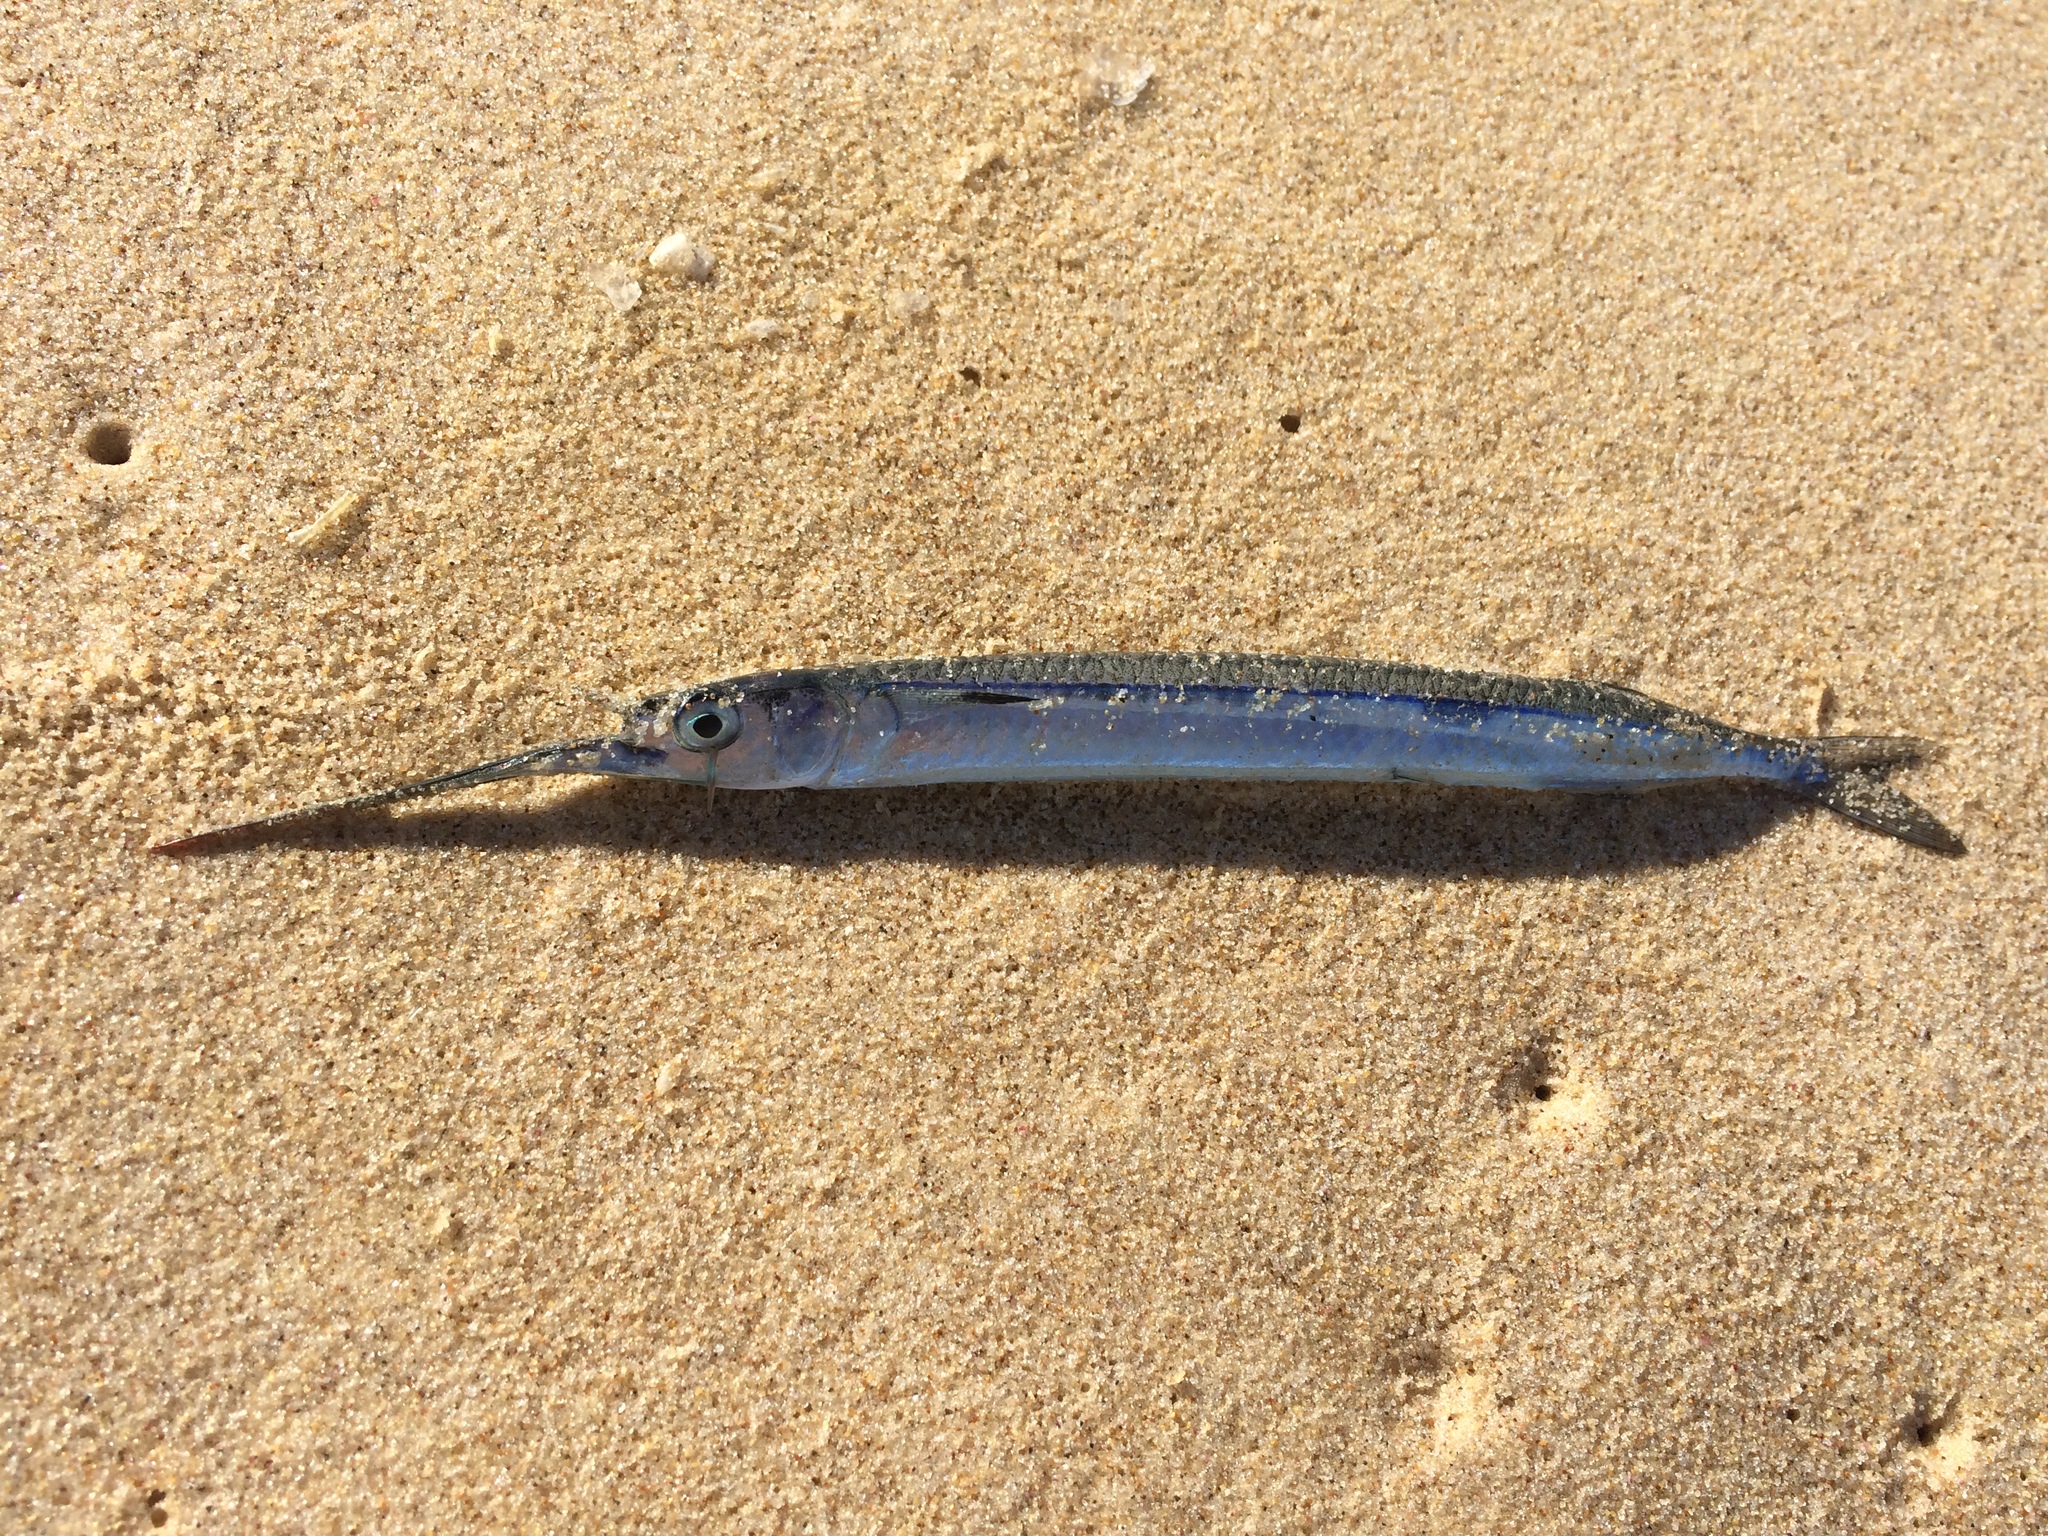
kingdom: Animalia
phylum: Chordata
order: Beloniformes
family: Hemiramphidae
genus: Hyporhamphus
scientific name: Hyporhamphus australis
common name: Eastern sea garfish
